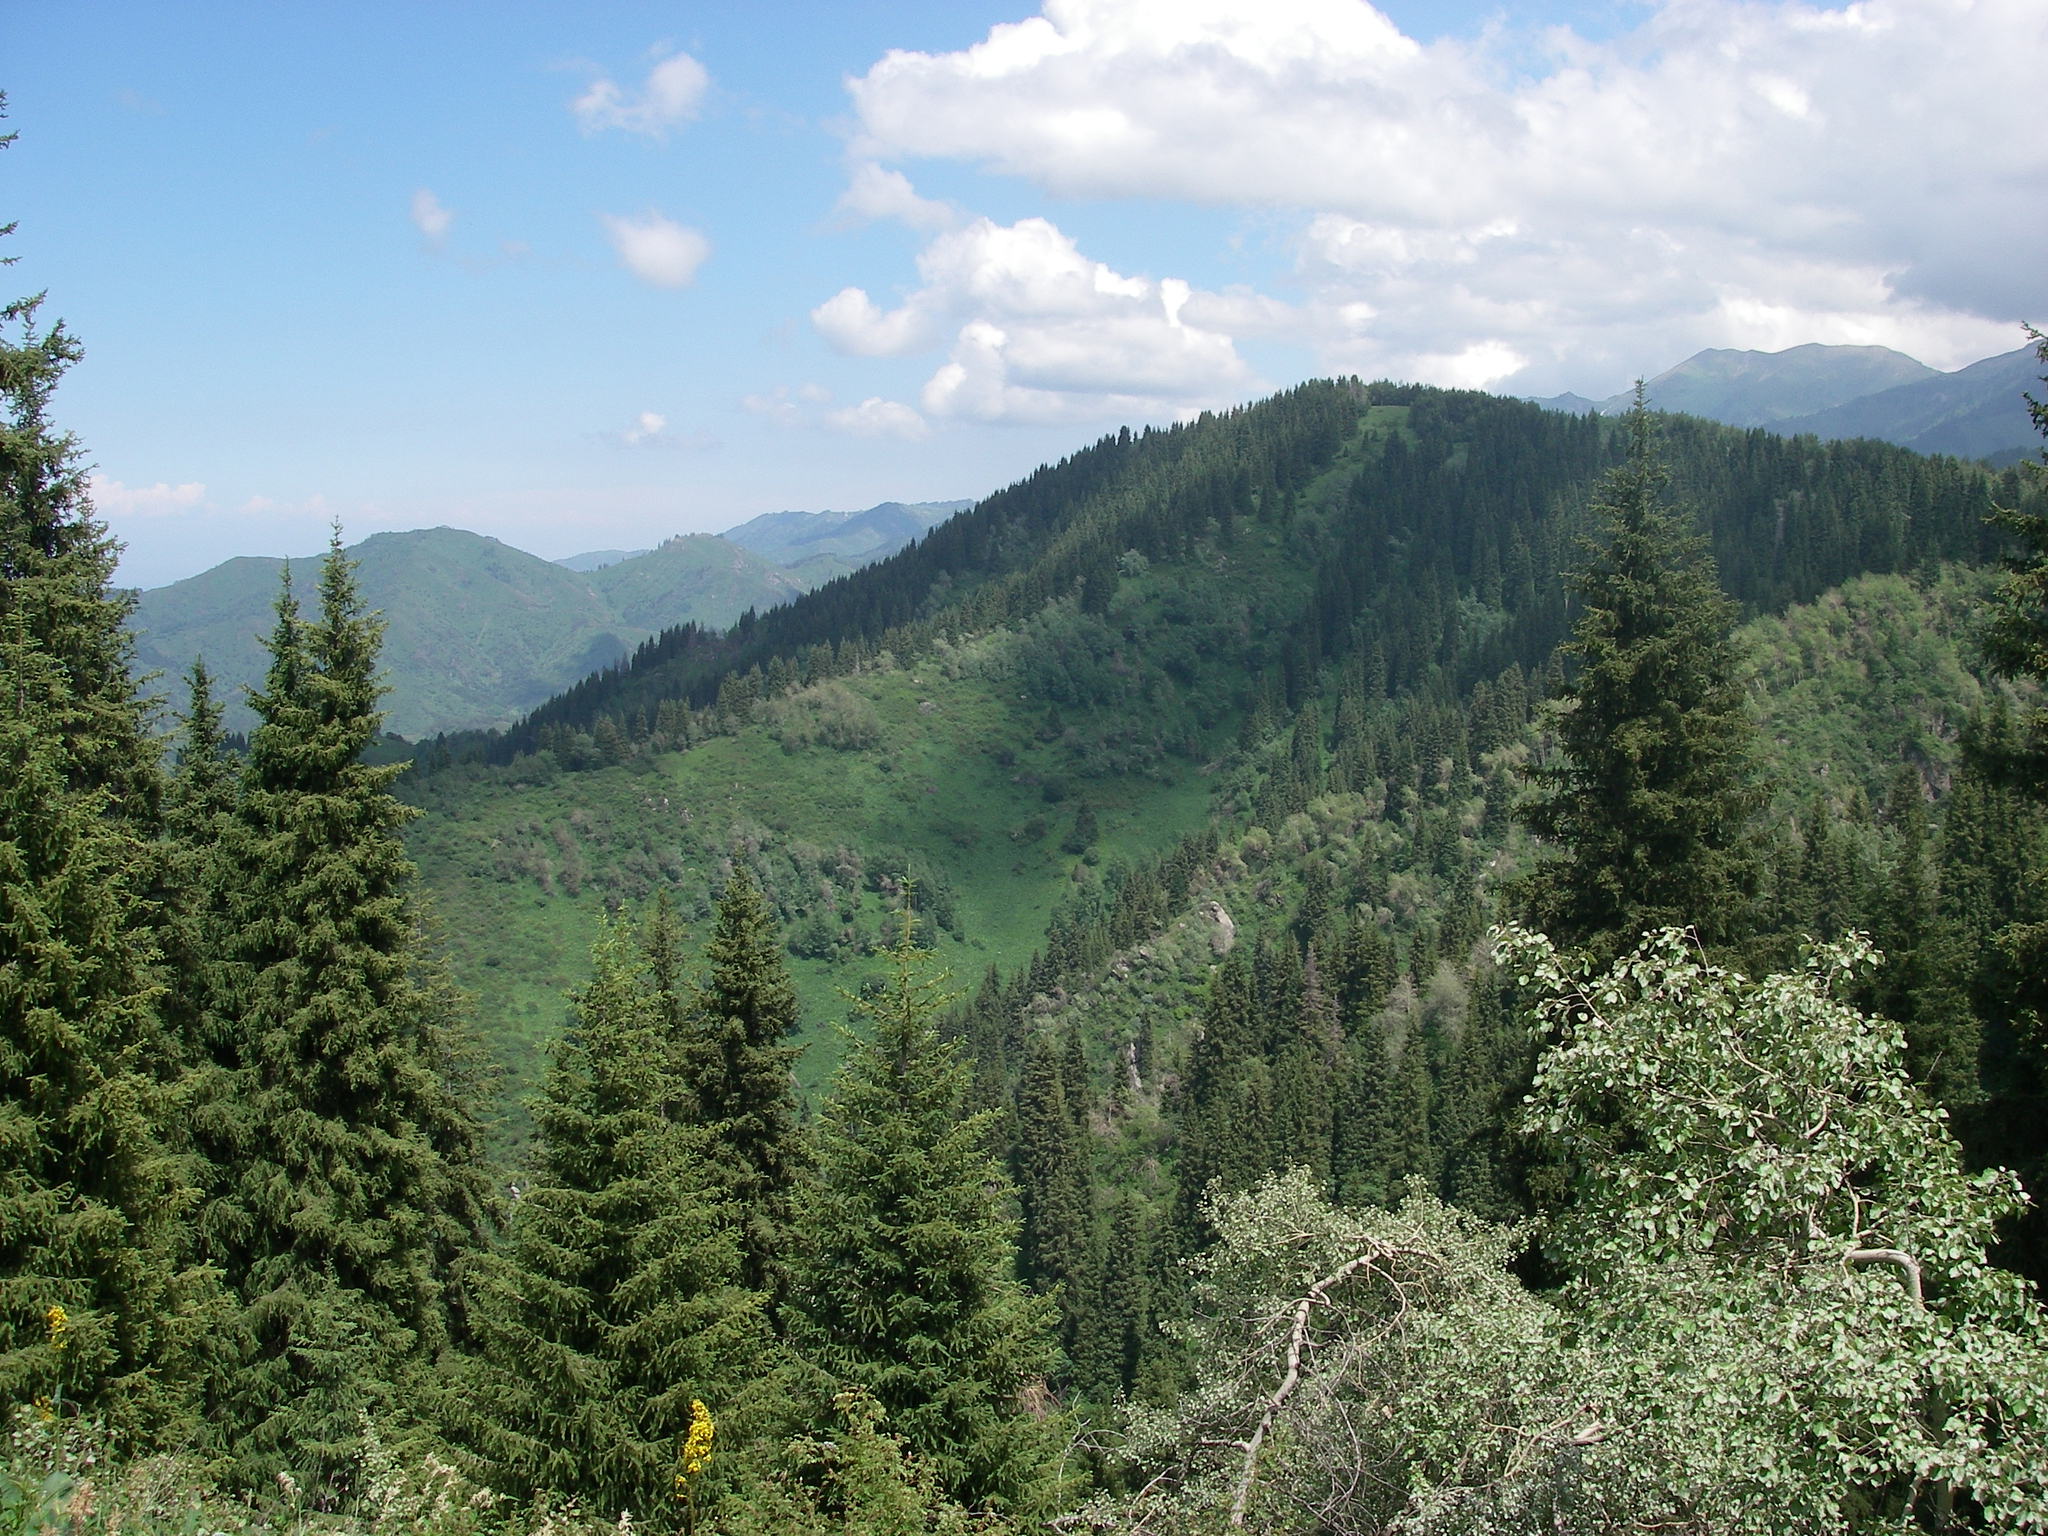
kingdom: Plantae
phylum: Tracheophyta
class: Pinopsida
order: Pinales
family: Pinaceae
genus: Picea
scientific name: Picea schrenkiana
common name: Asian spruce
